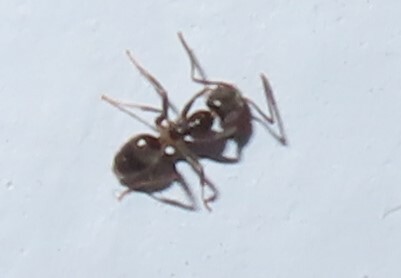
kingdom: Animalia
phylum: Arthropoda
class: Insecta
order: Hymenoptera
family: Formicidae
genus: Tapinoma
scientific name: Tapinoma sessile
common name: Odorous house ant
